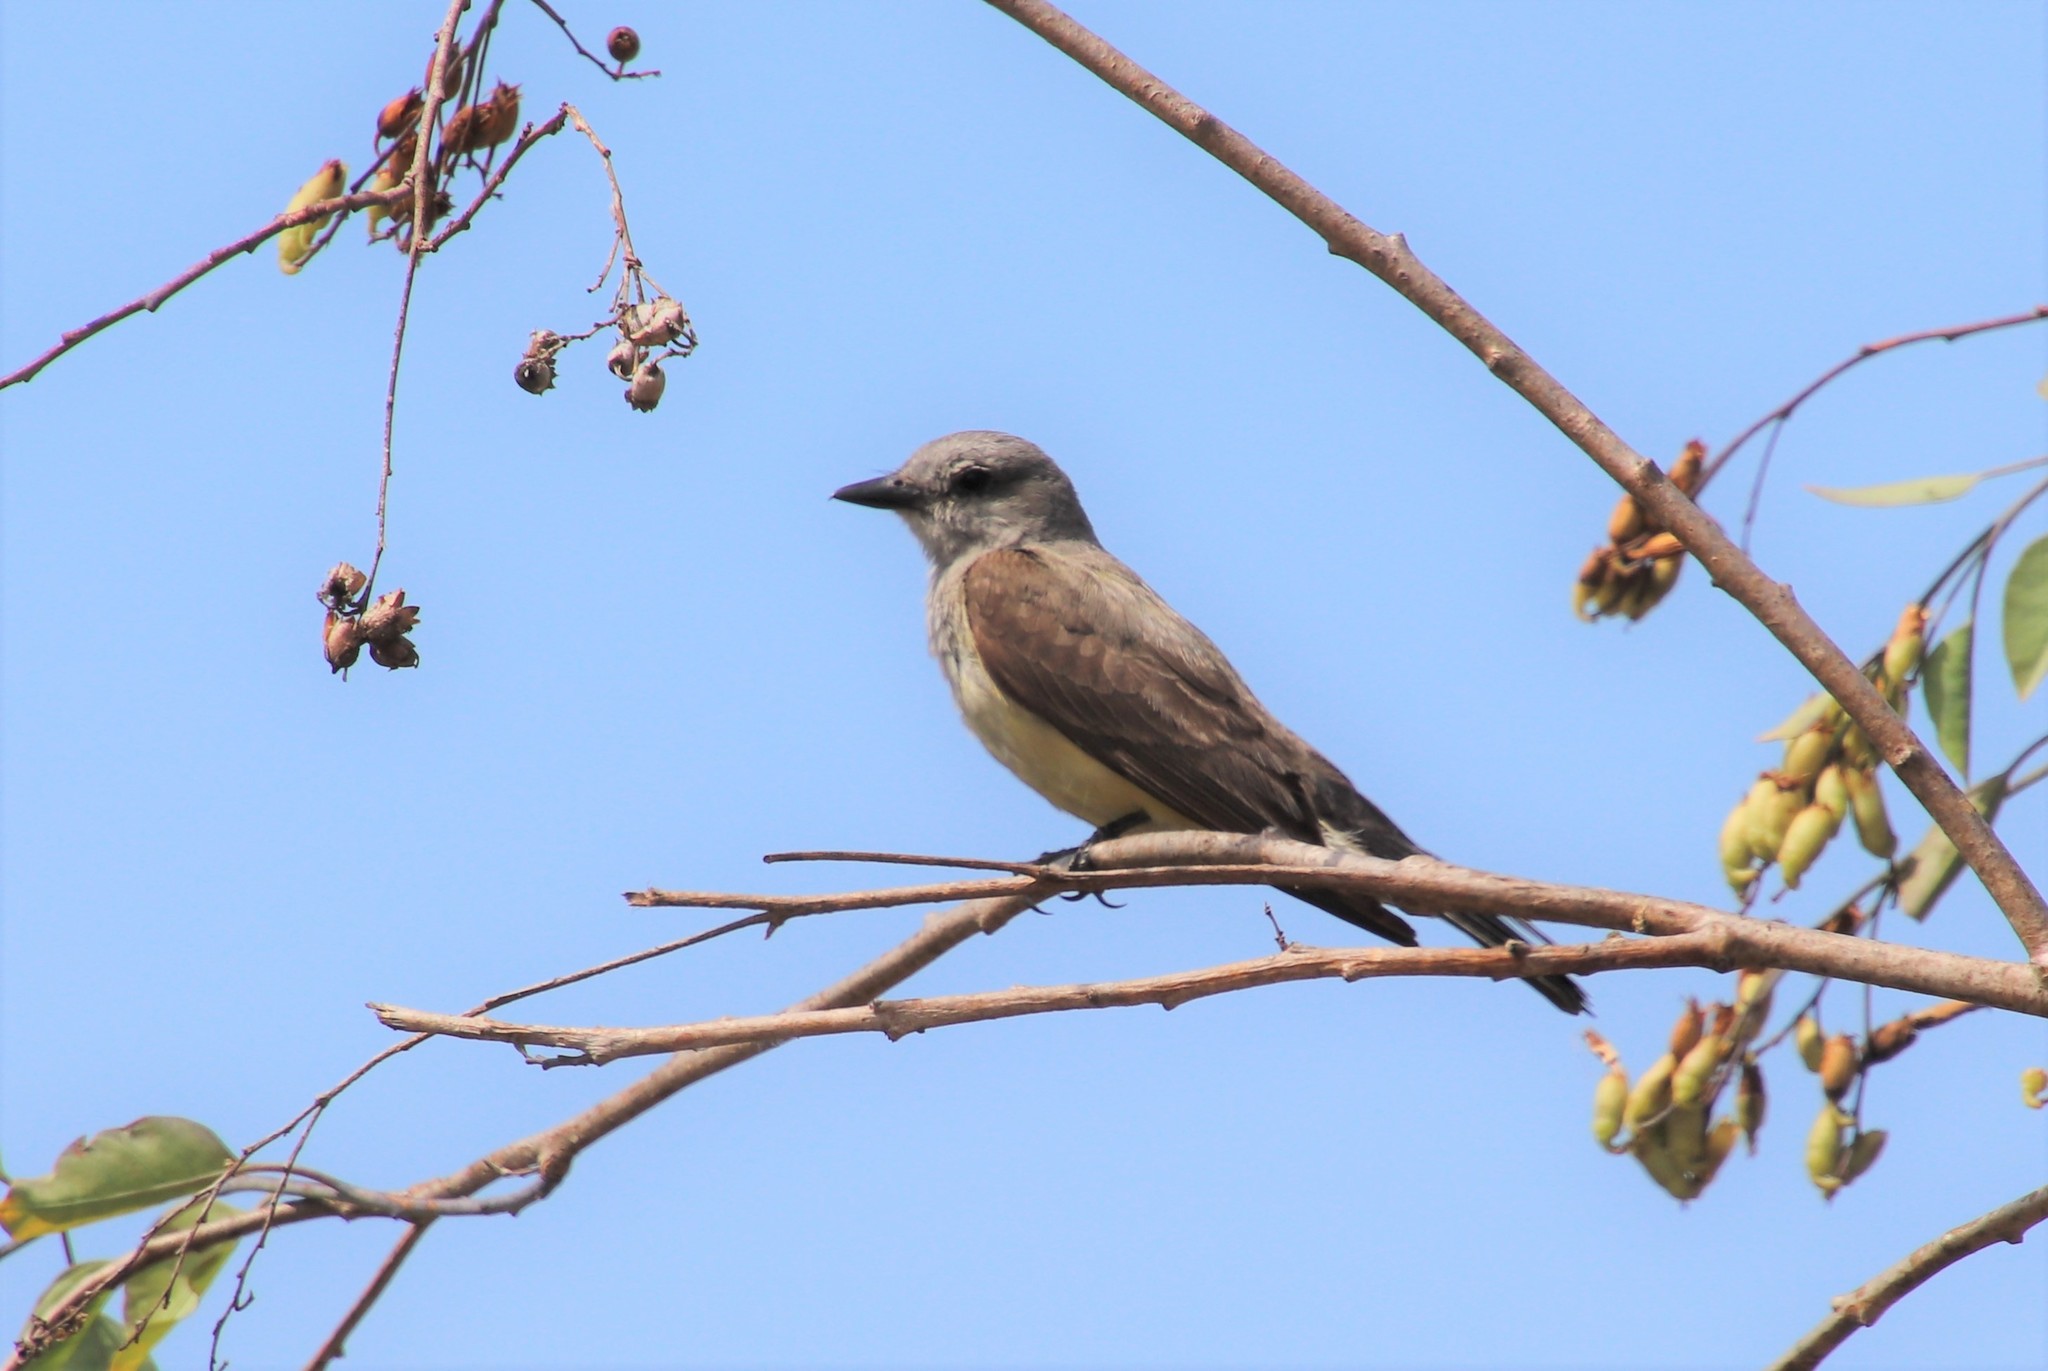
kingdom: Animalia
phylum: Chordata
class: Aves
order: Passeriformes
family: Tyrannidae
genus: Tyrannus
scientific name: Tyrannus verticalis
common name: Western kingbird
